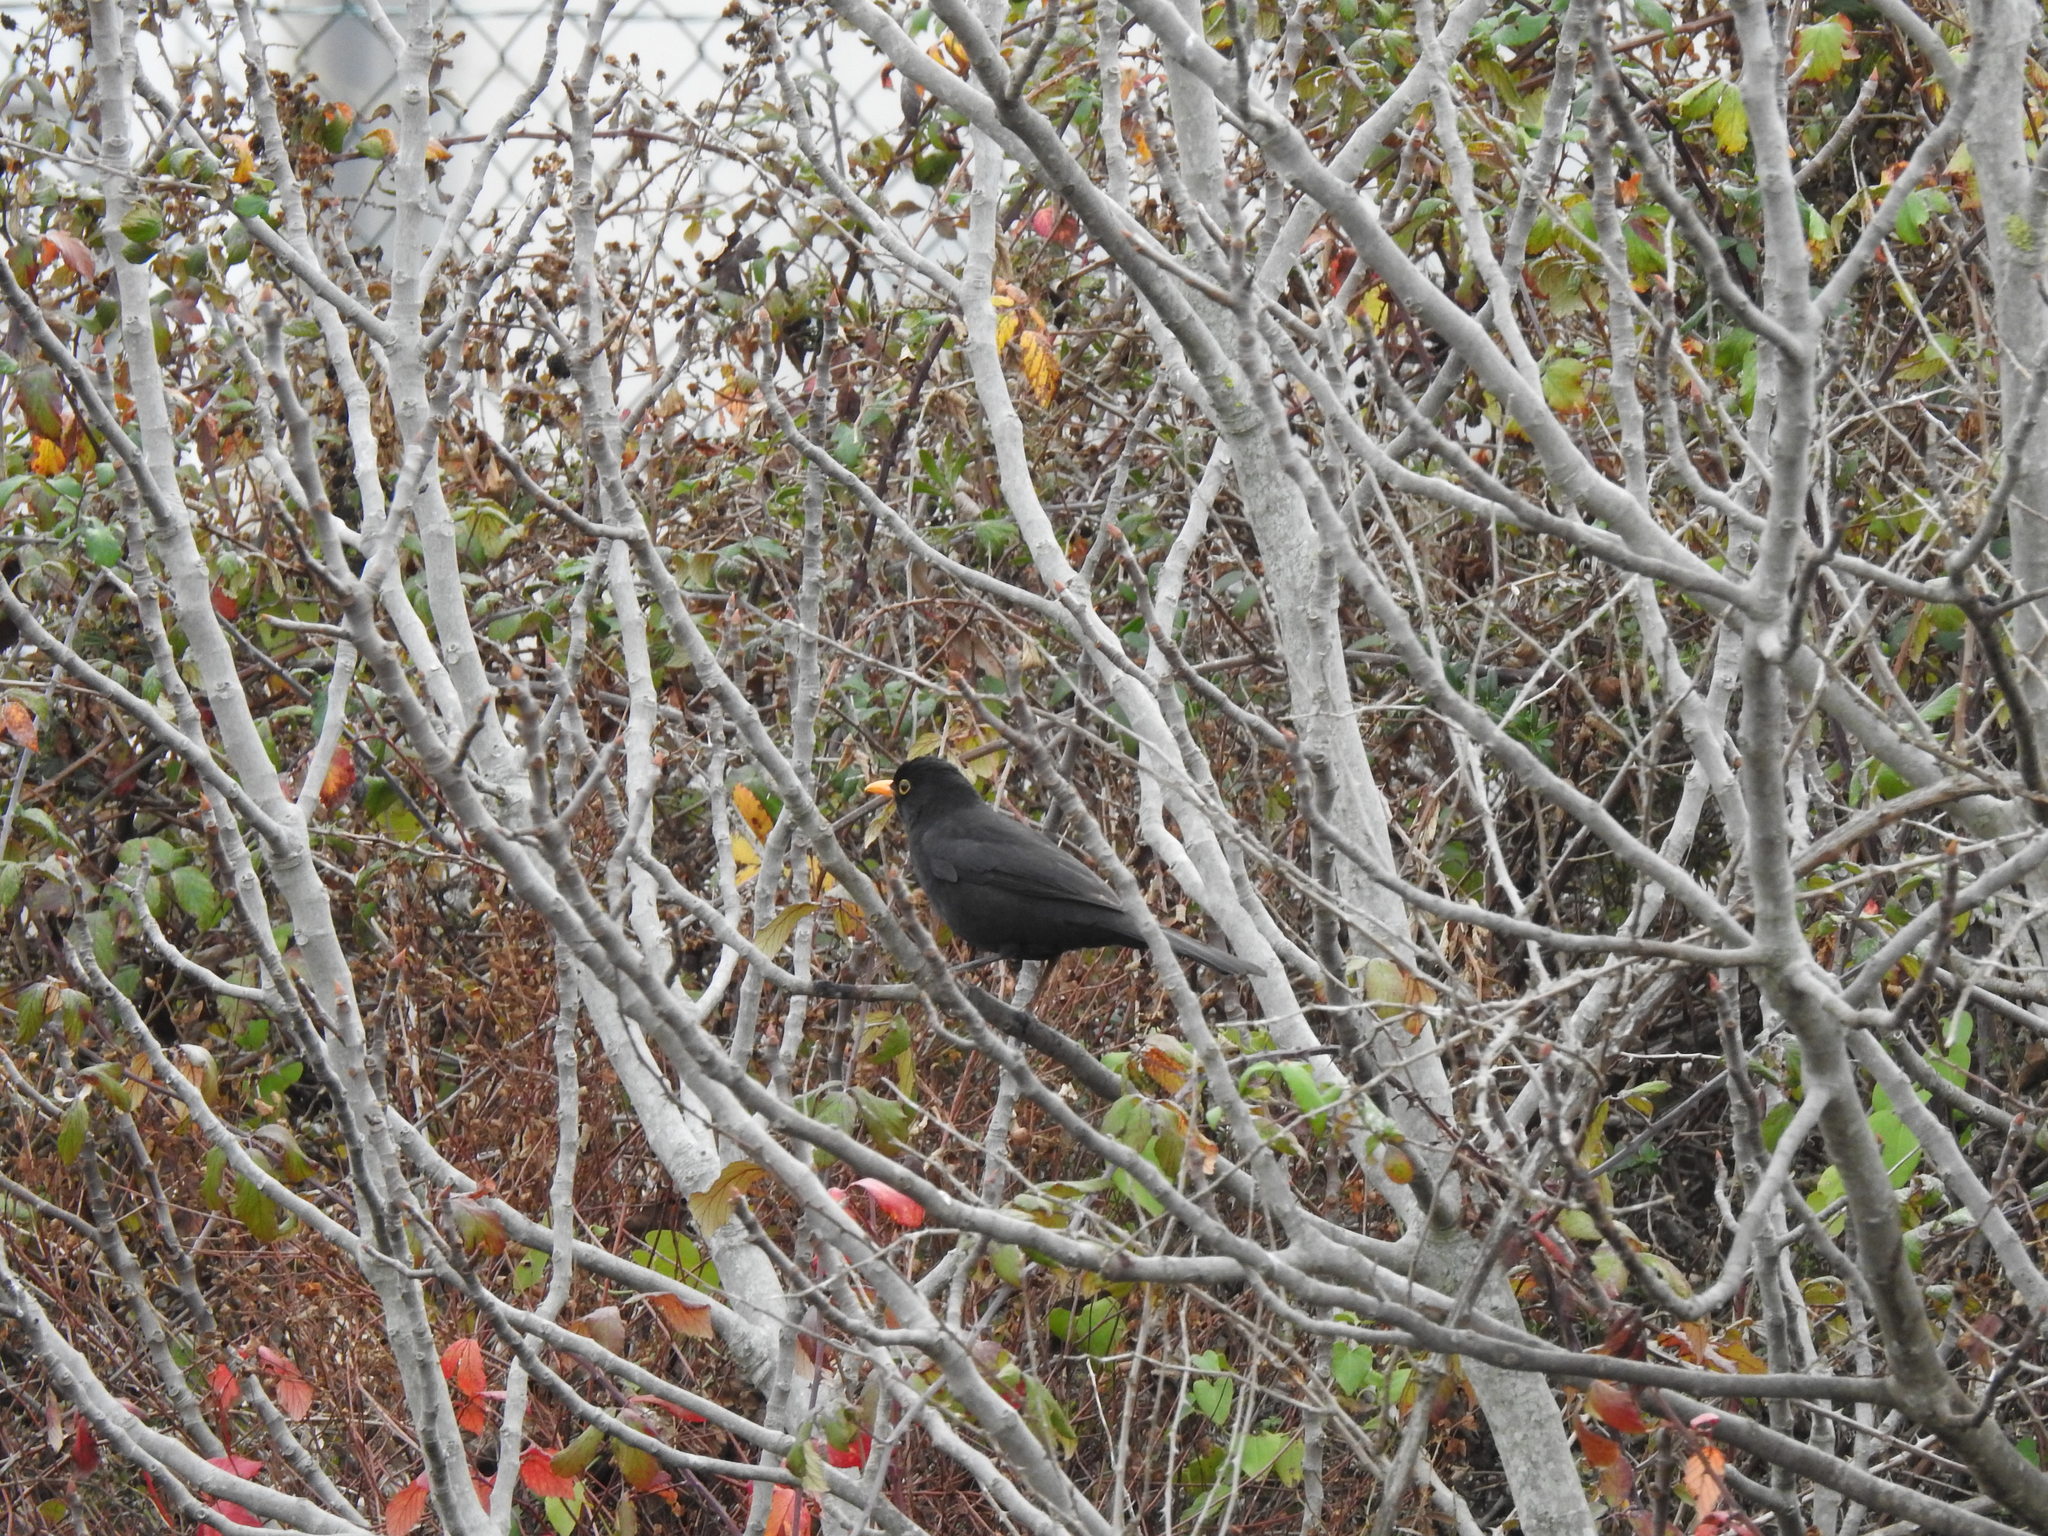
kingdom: Animalia
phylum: Chordata
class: Aves
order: Passeriformes
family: Turdidae
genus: Turdus
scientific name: Turdus merula
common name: Common blackbird
